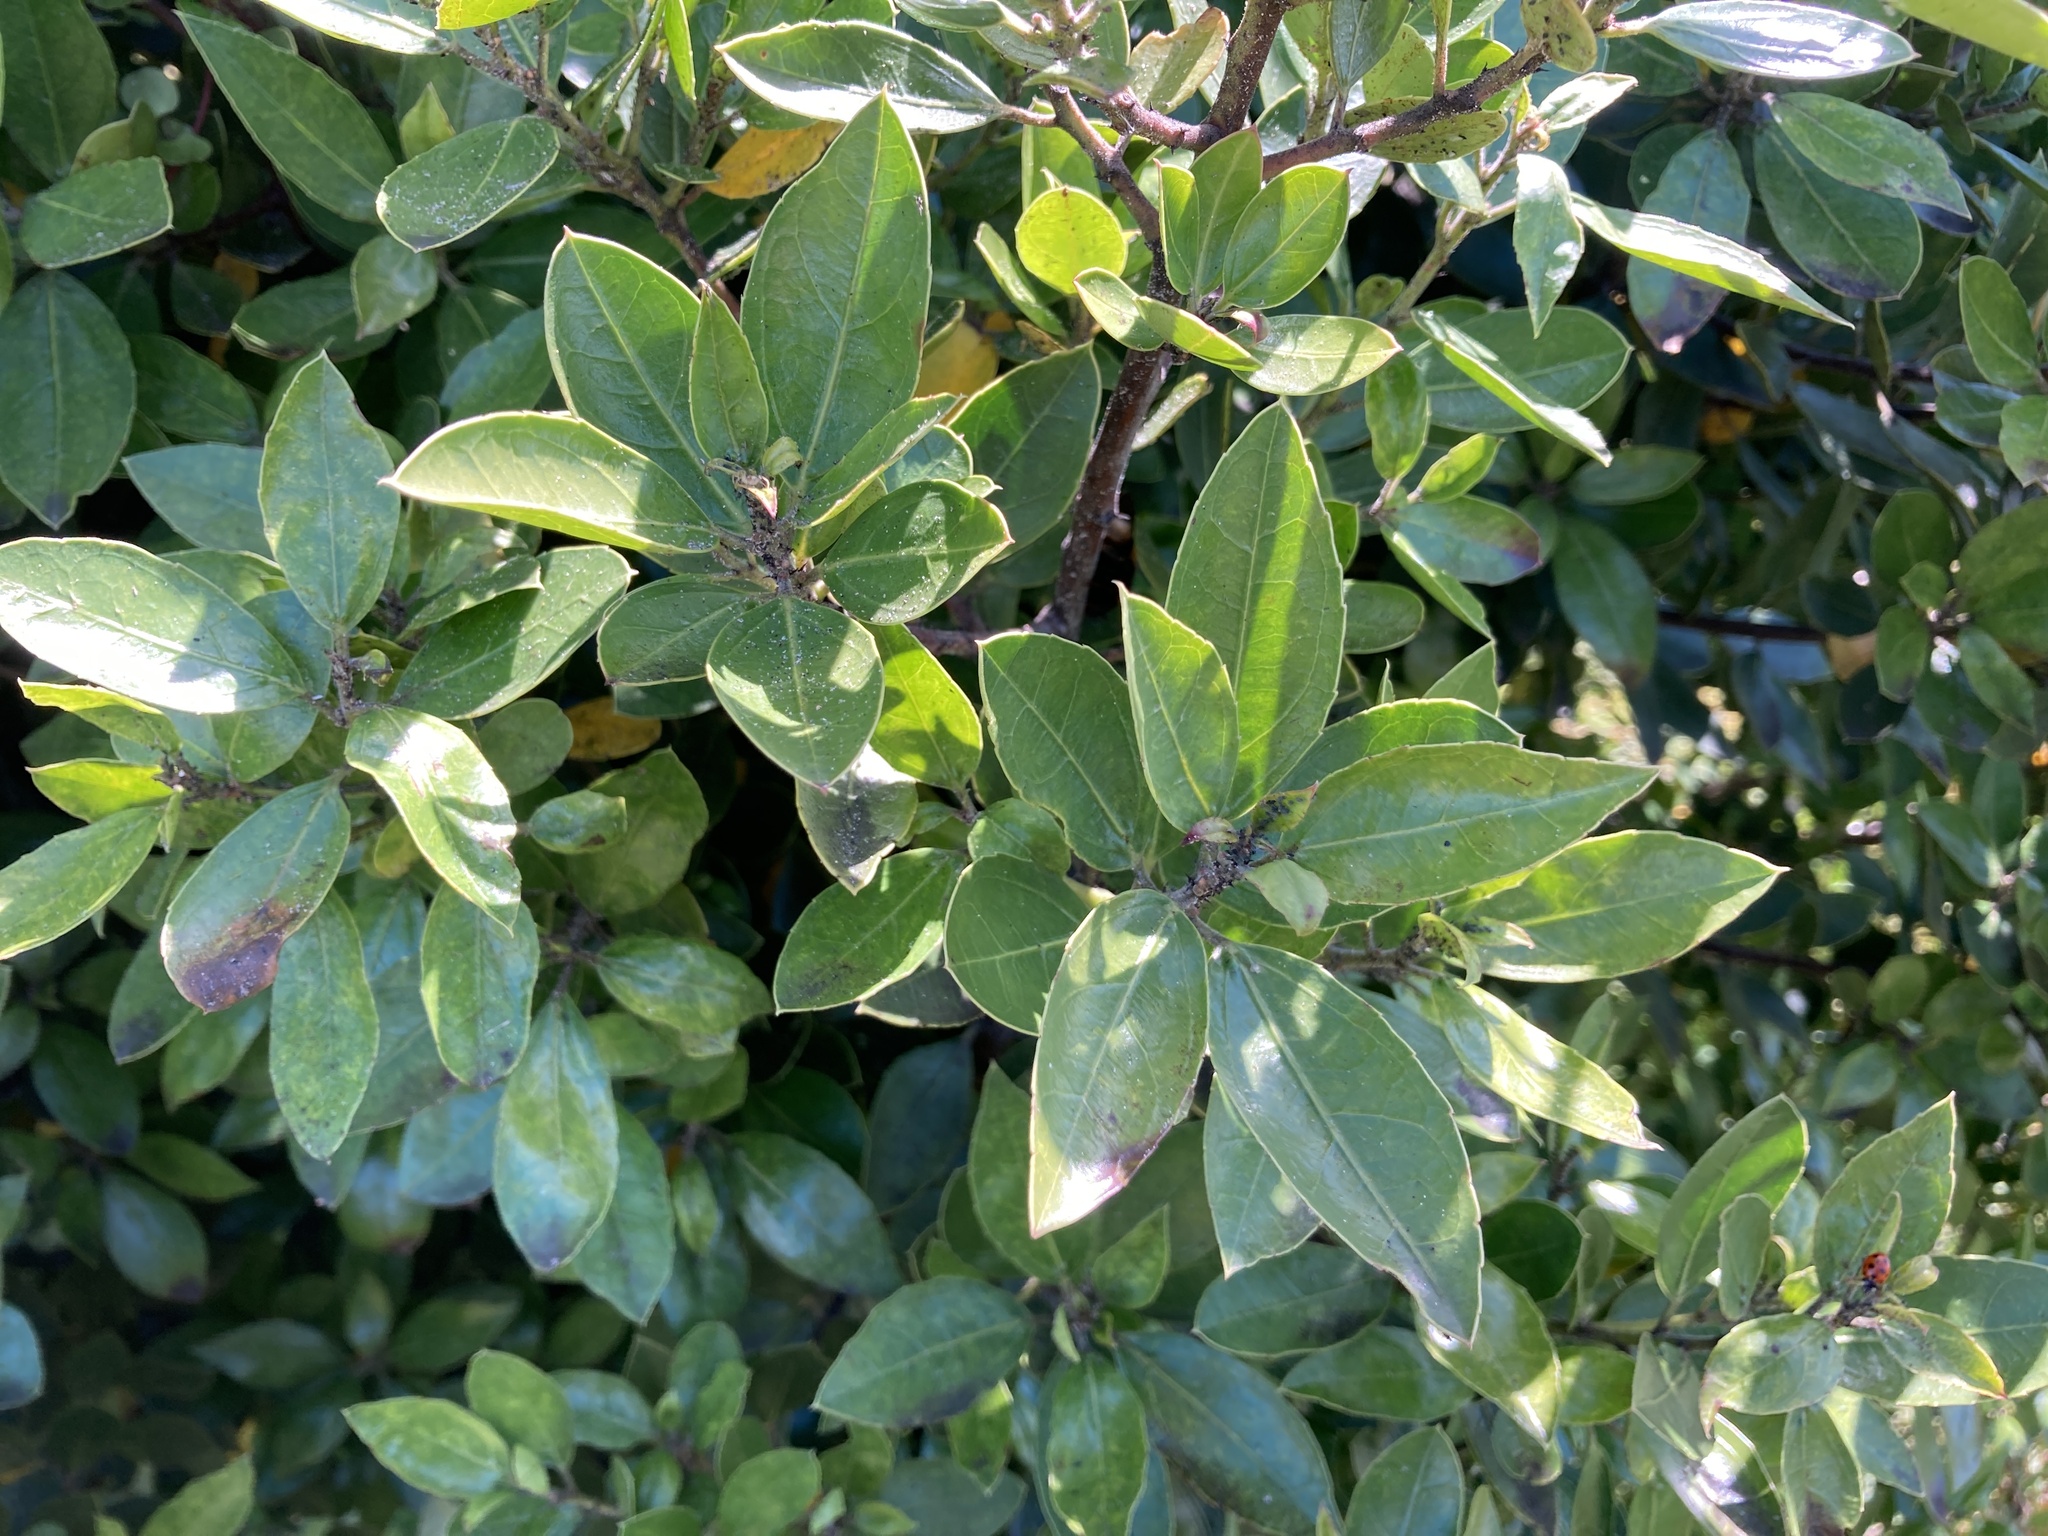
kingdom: Plantae
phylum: Tracheophyta
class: Magnoliopsida
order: Rosales
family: Rhamnaceae
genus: Rhamnus
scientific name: Rhamnus alaternus
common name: Mediterranean buckthorn
